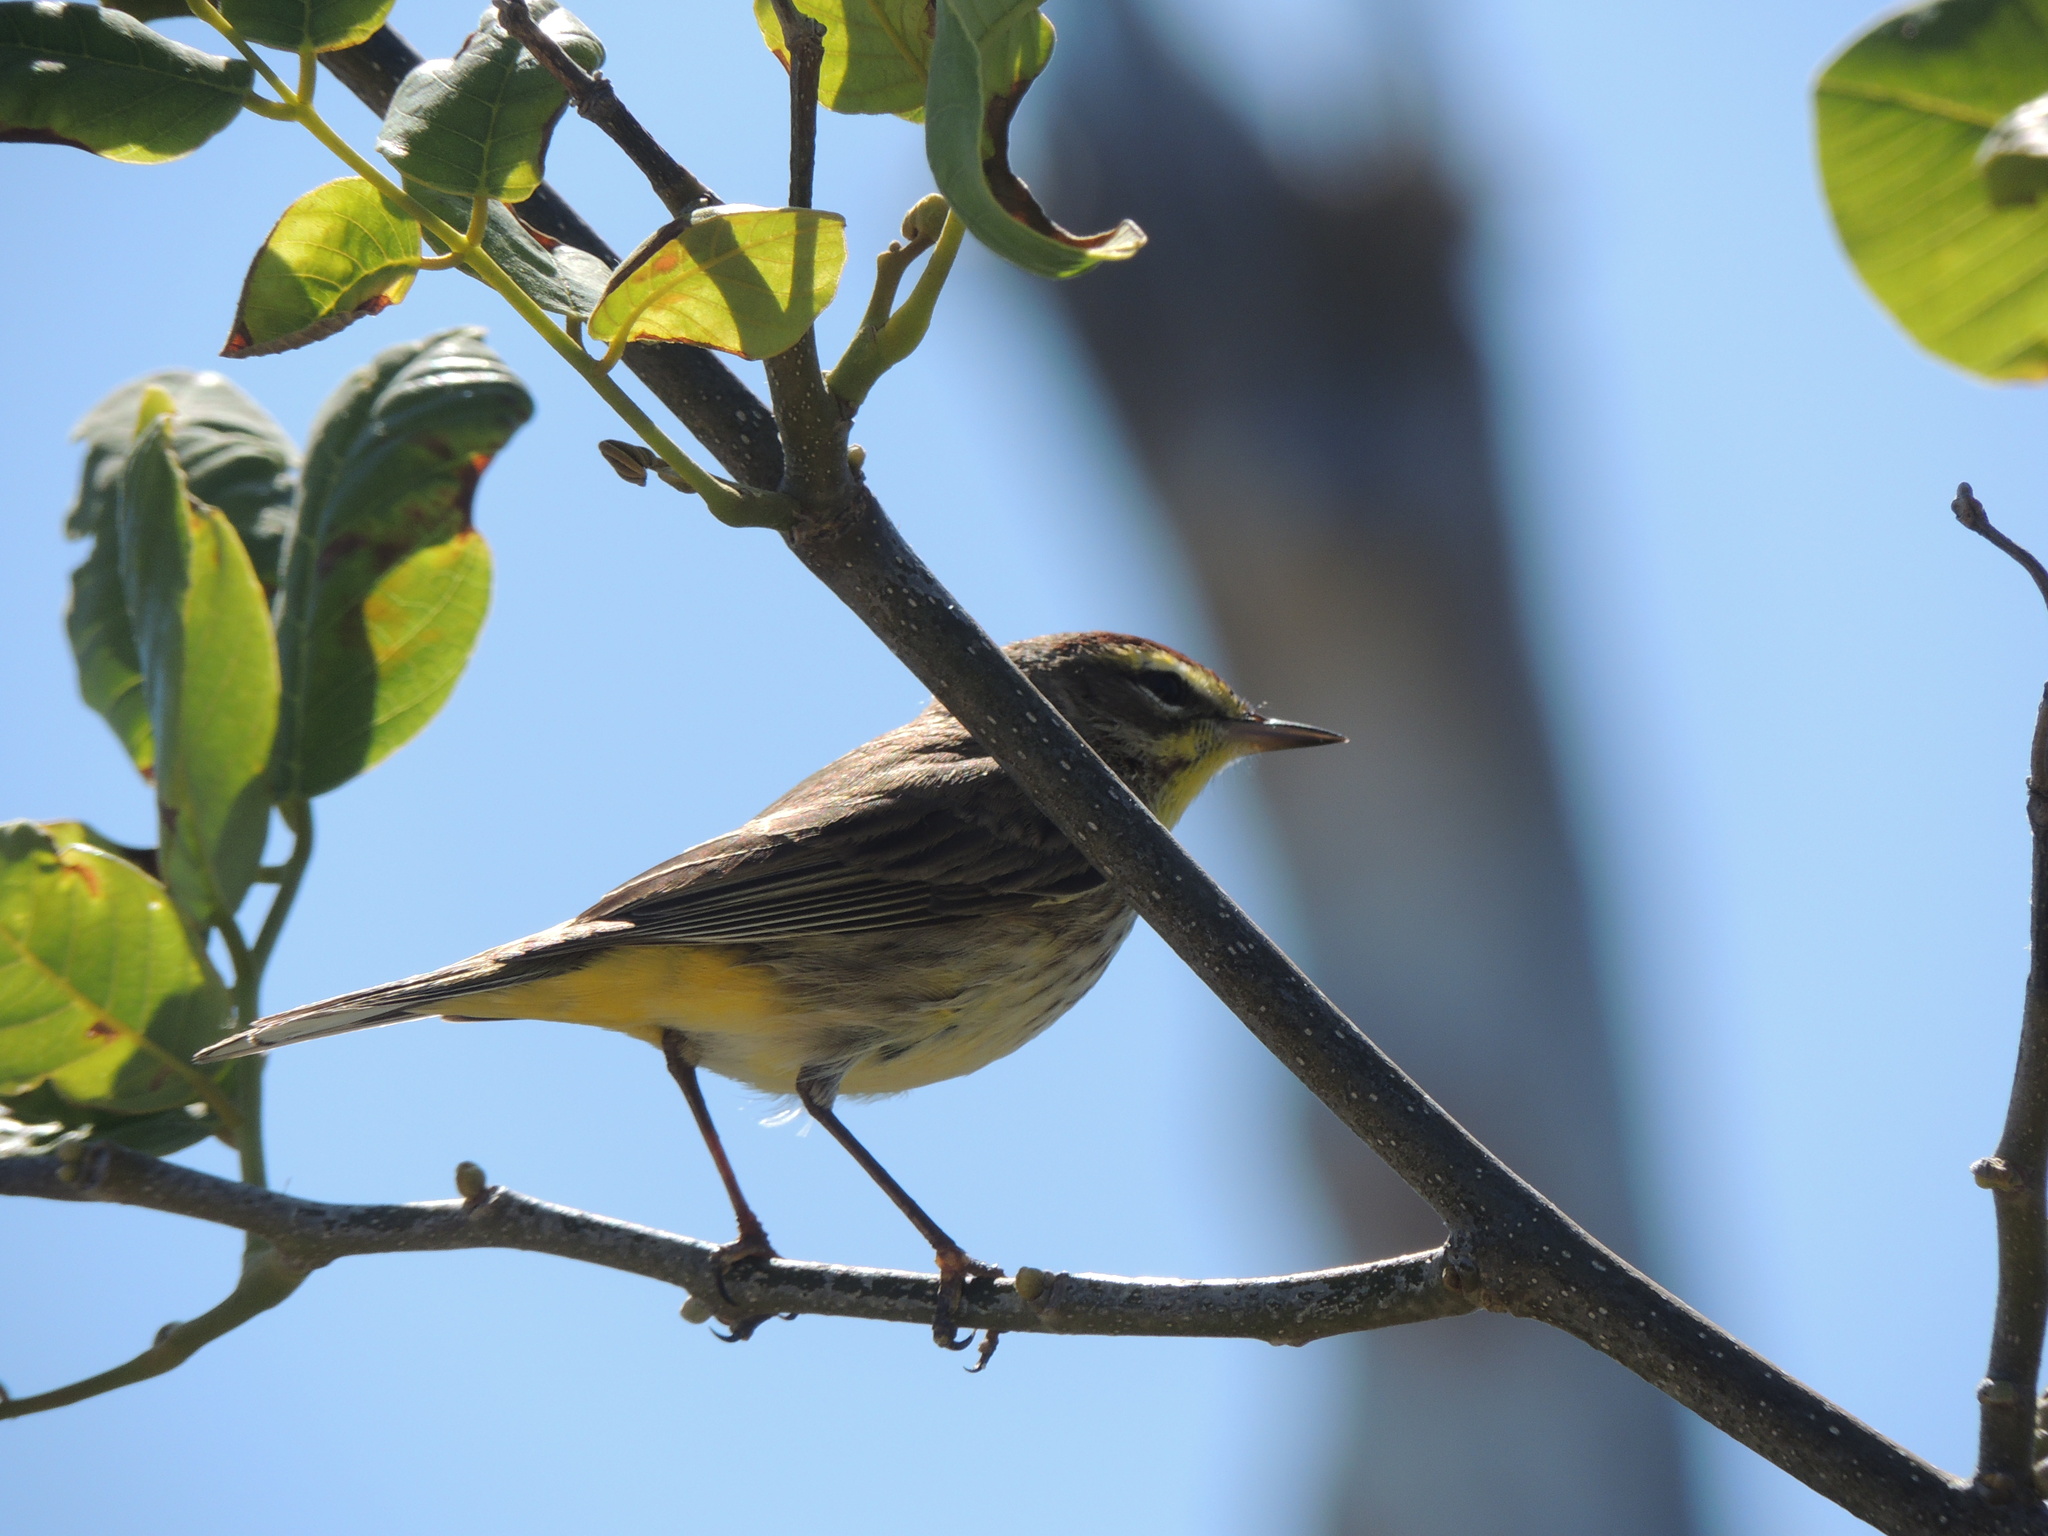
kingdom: Animalia
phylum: Chordata
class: Aves
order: Passeriformes
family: Parulidae
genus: Setophaga
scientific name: Setophaga palmarum
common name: Palm warbler
